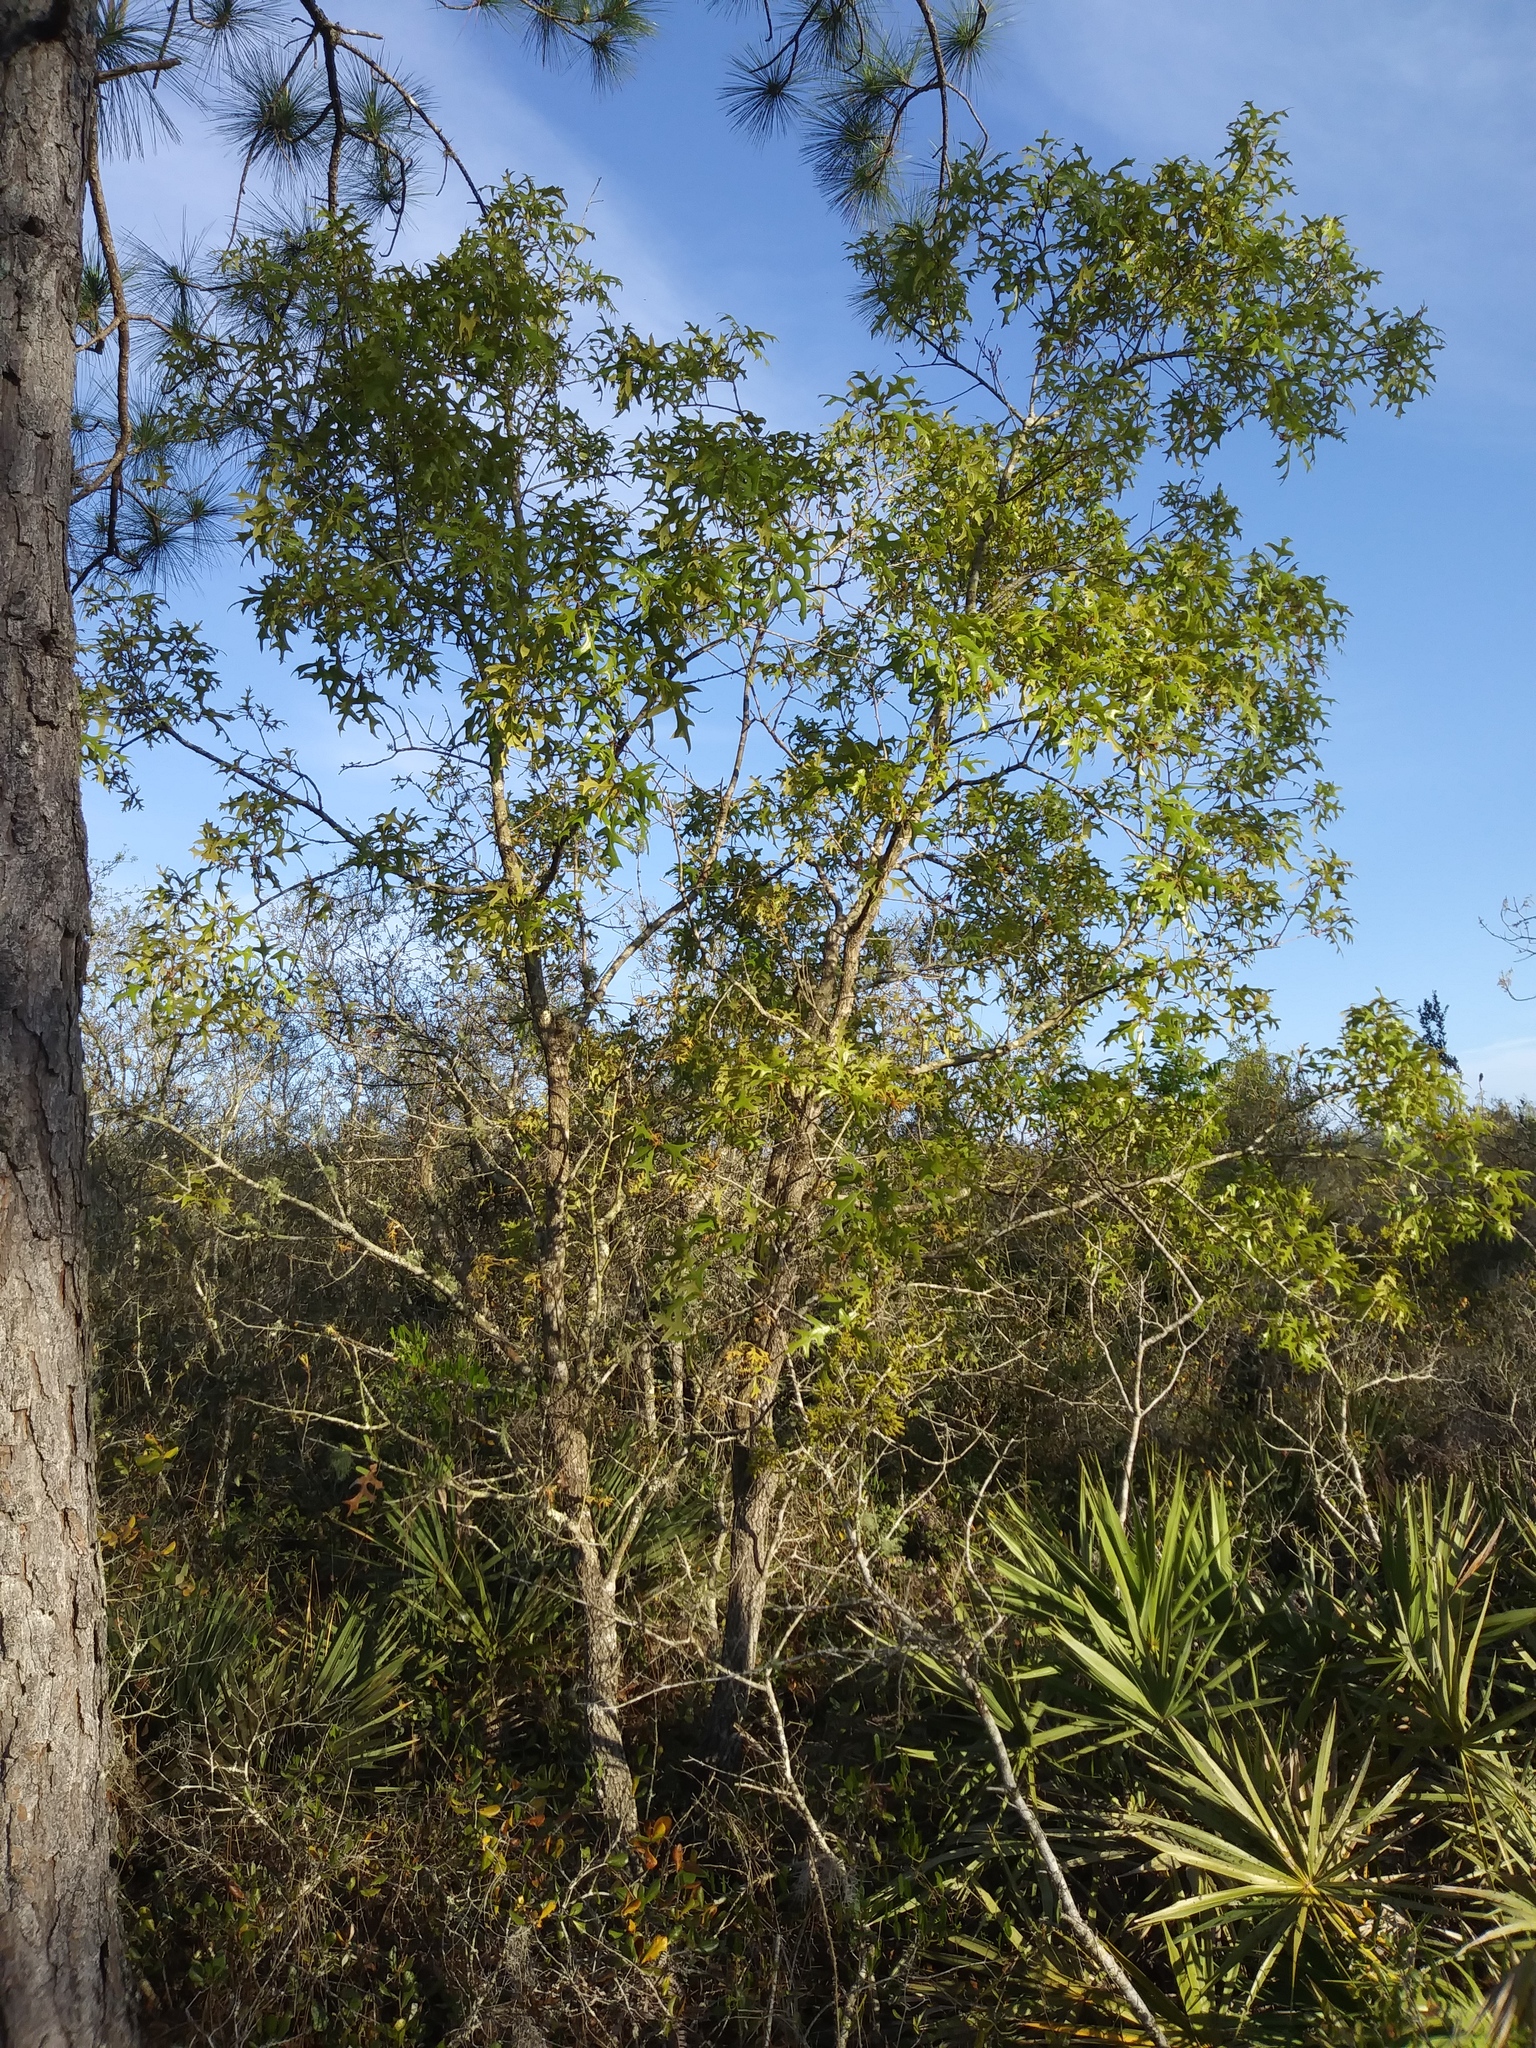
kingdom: Plantae
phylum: Tracheophyta
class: Magnoliopsida
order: Fagales
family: Fagaceae
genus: Quercus
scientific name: Quercus laevis
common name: Turkey oak
